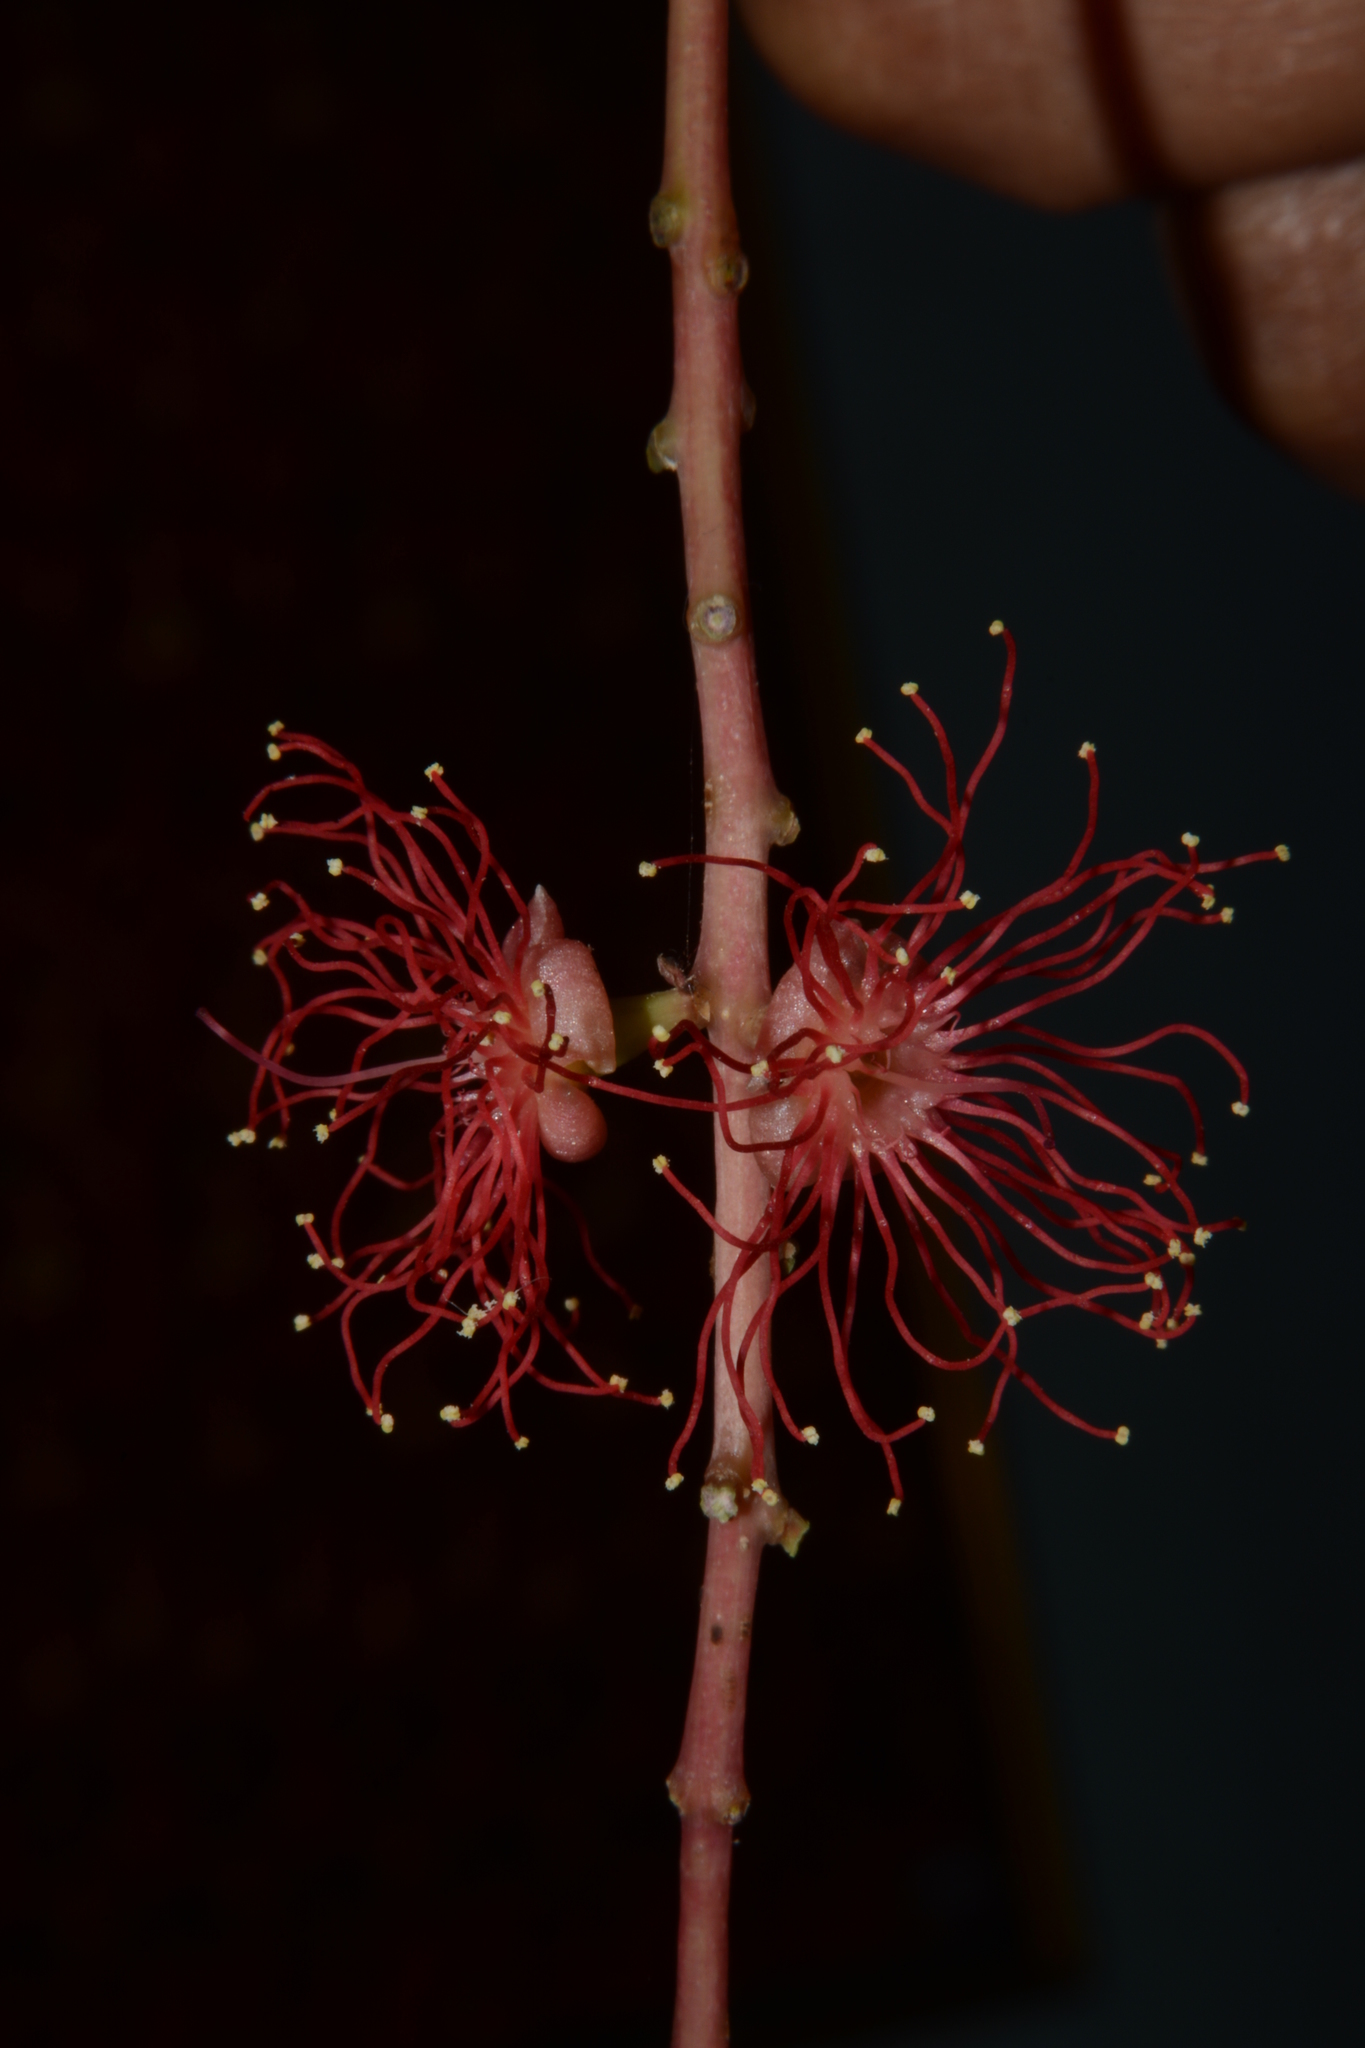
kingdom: Plantae
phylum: Tracheophyta
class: Magnoliopsida
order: Ericales
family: Lecythidaceae
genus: Barringtonia
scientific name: Barringtonia acutangula
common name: Freshwater mangrove
